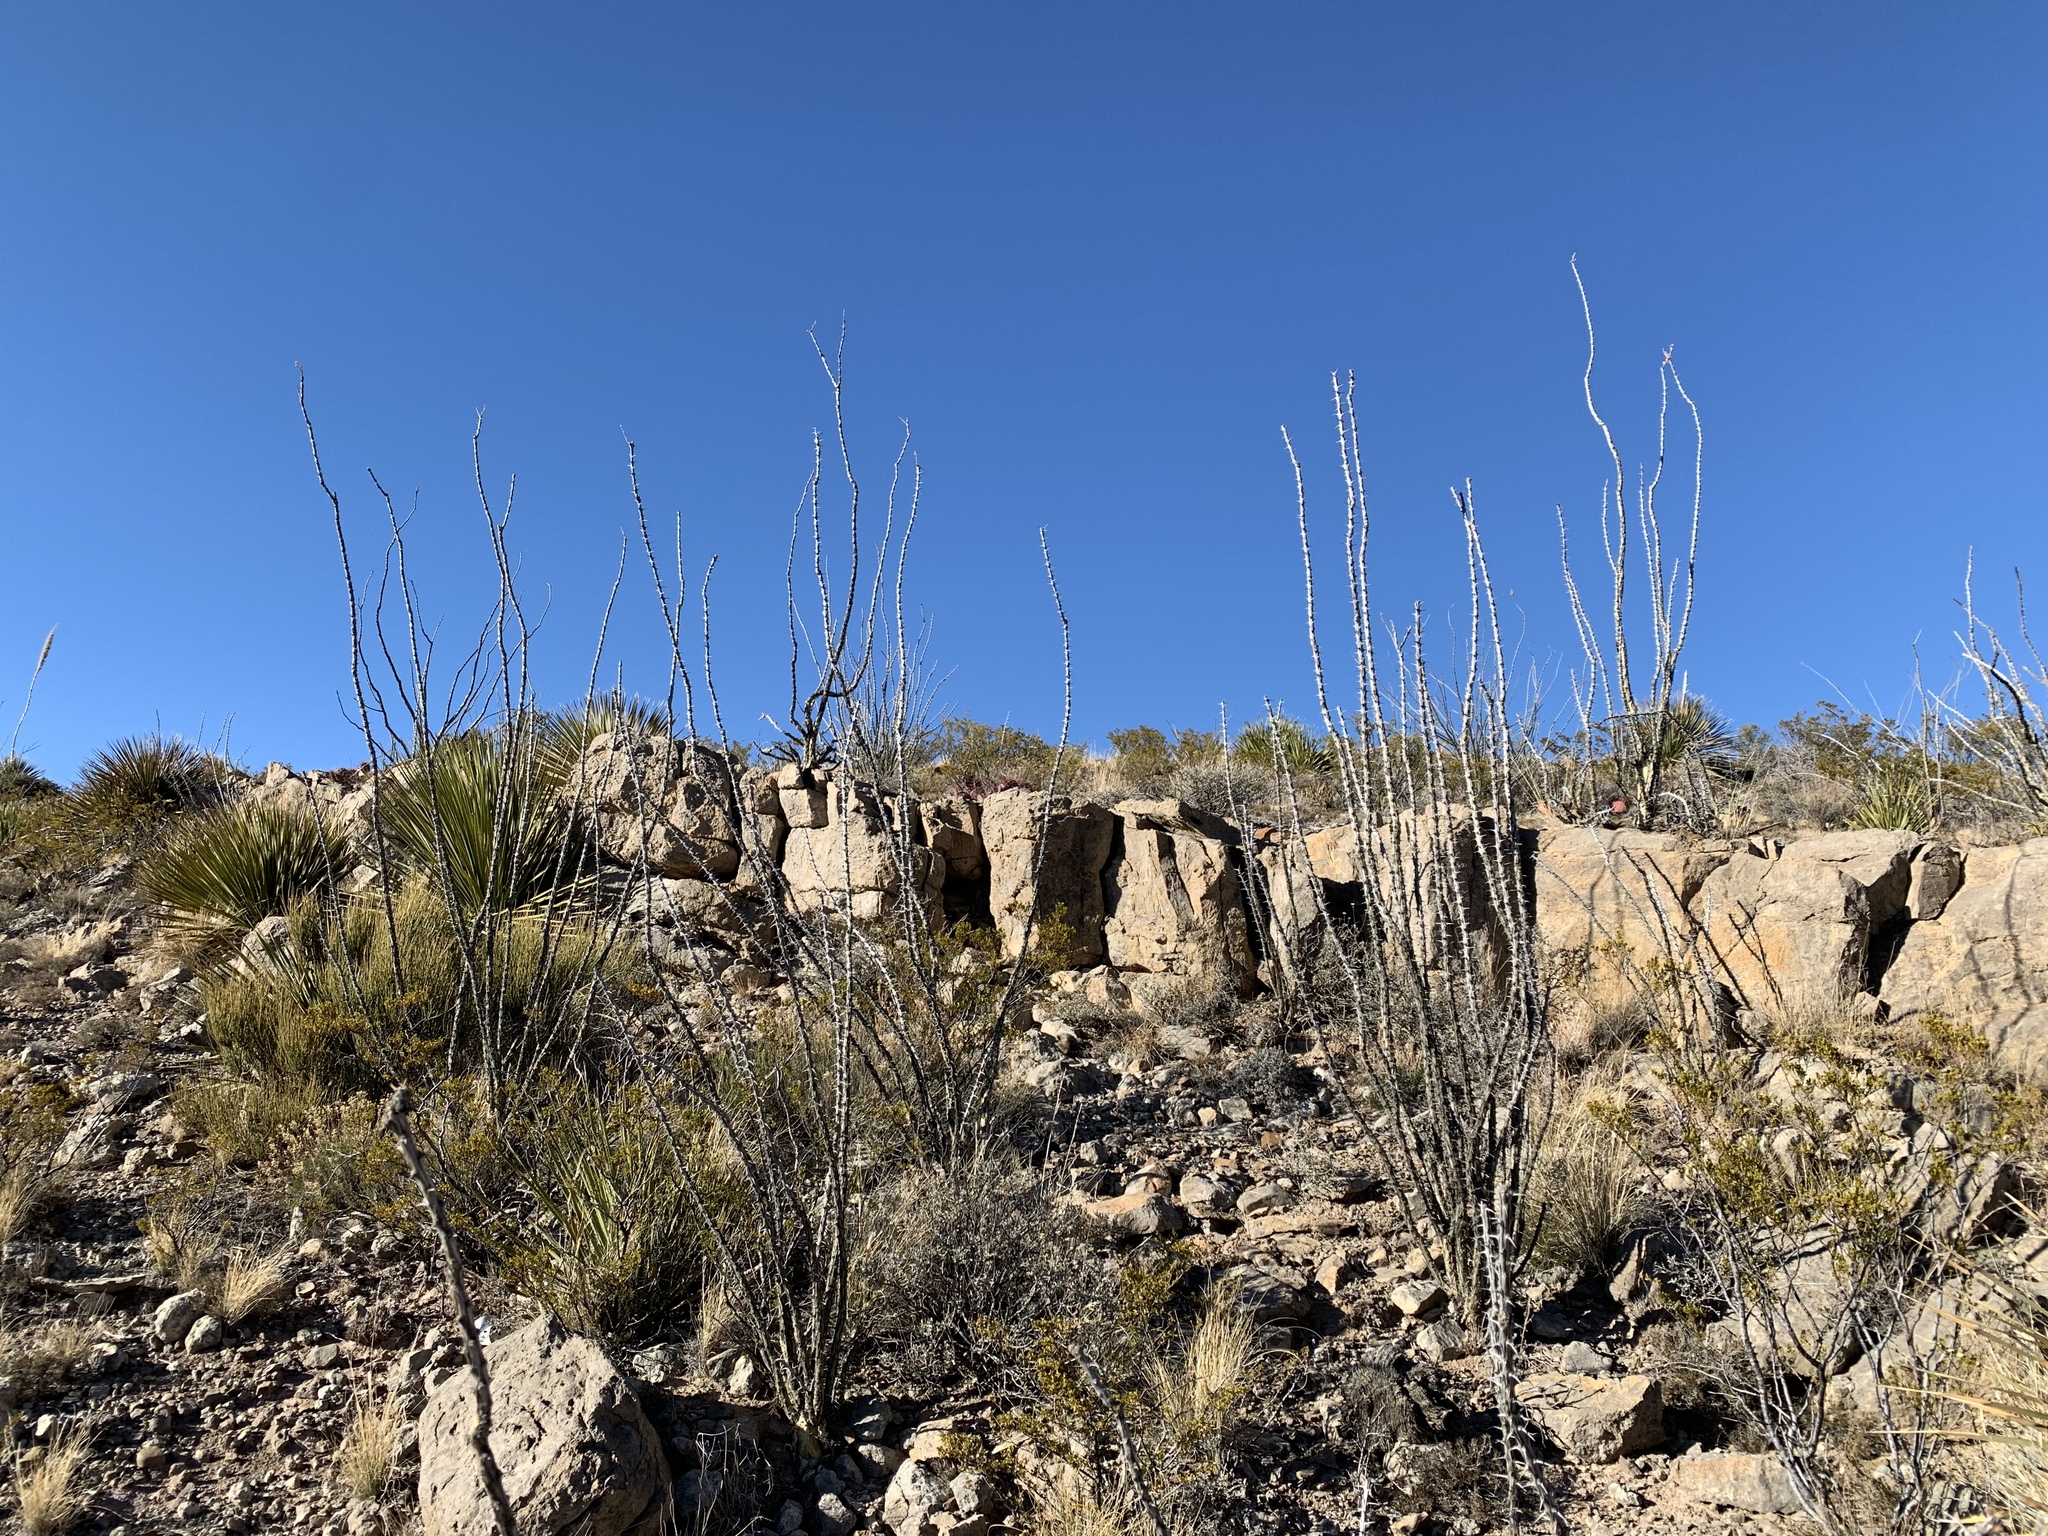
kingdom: Plantae
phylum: Tracheophyta
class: Magnoliopsida
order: Ericales
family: Fouquieriaceae
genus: Fouquieria
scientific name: Fouquieria splendens
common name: Vine-cactus
